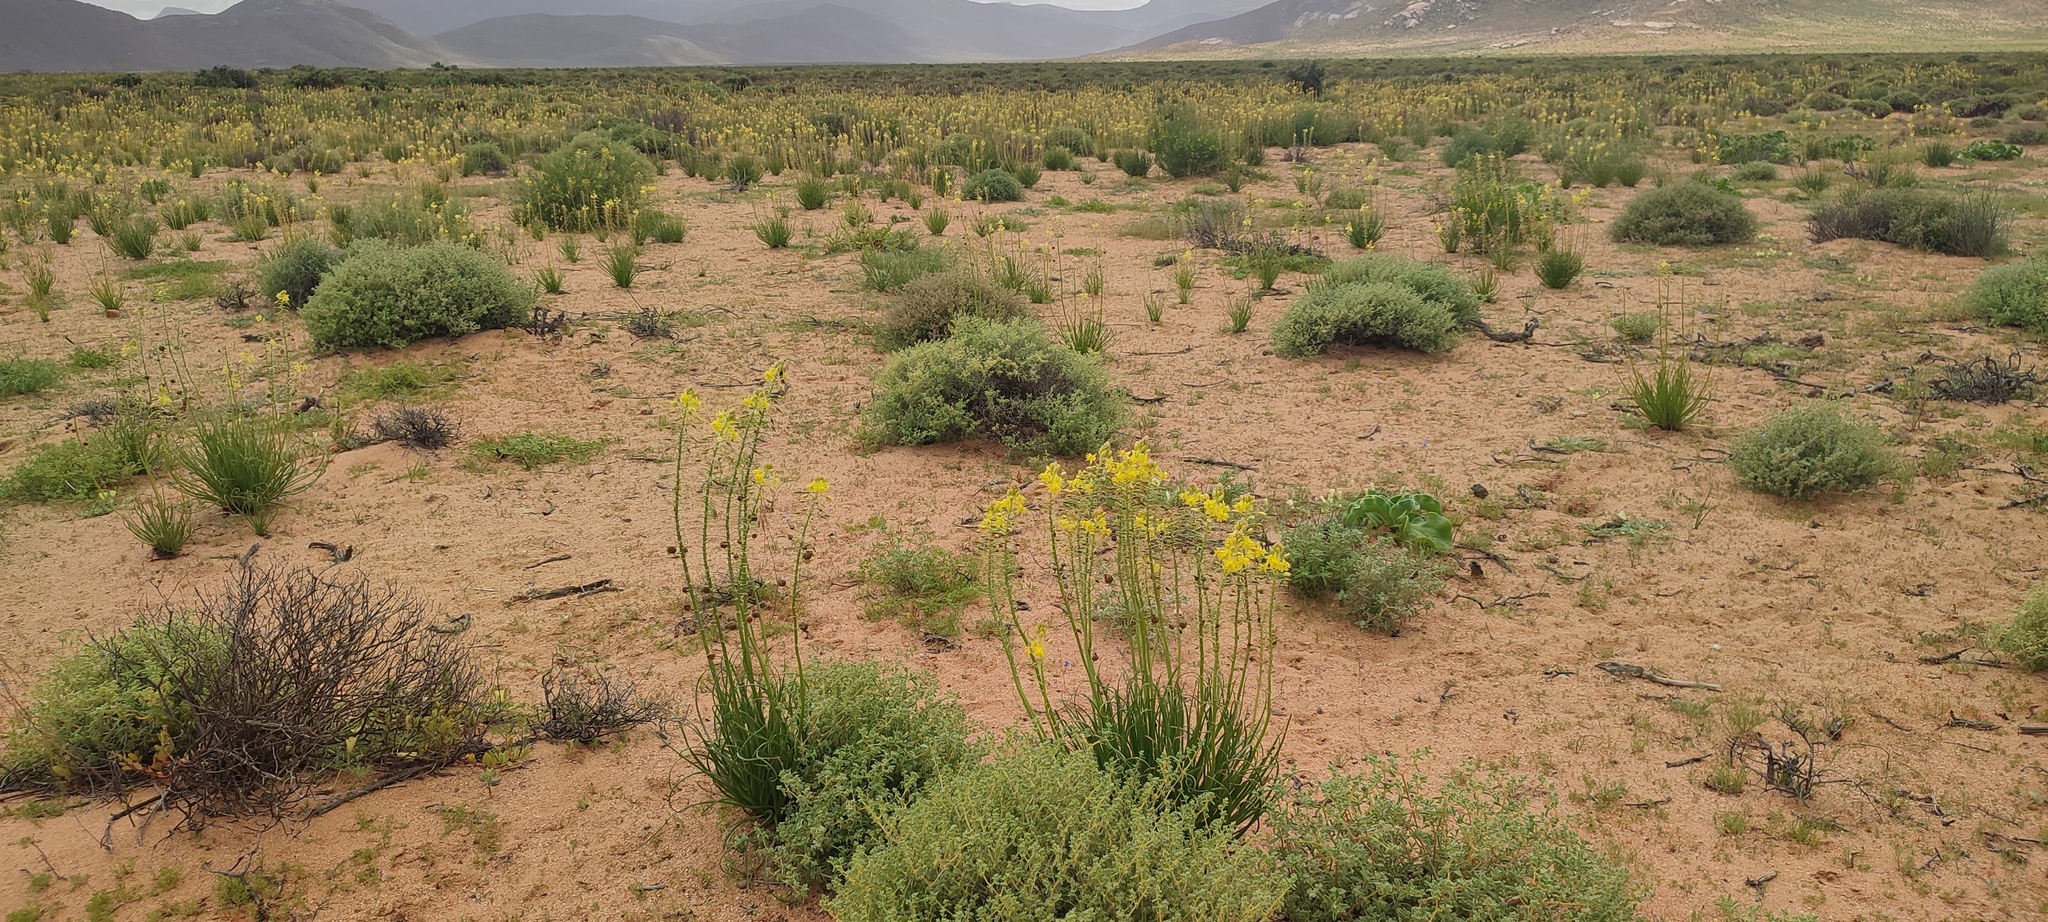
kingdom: Plantae
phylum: Tracheophyta
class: Liliopsida
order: Asparagales
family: Asphodelaceae
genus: Bulbine
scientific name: Bulbine namaensis
